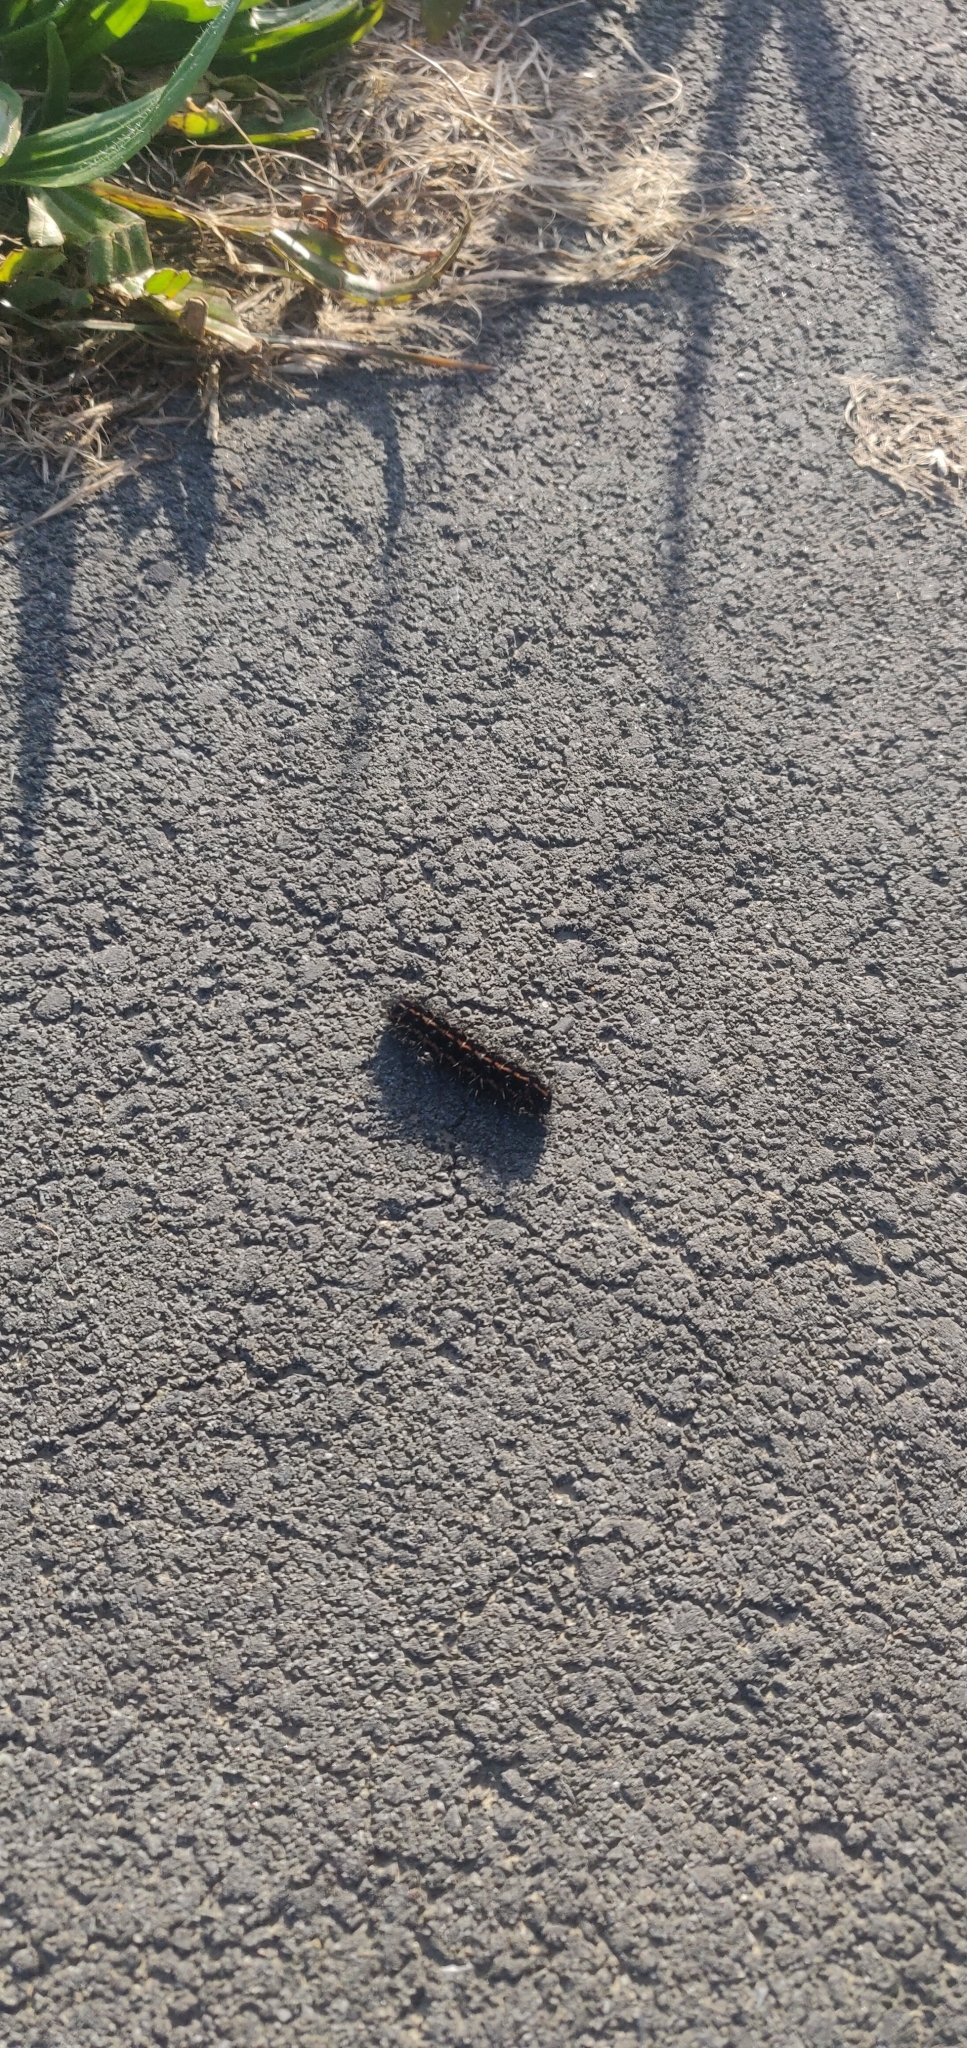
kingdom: Animalia
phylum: Arthropoda
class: Insecta
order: Lepidoptera
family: Erebidae
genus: Nyctemera
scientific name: Nyctemera annulatum
